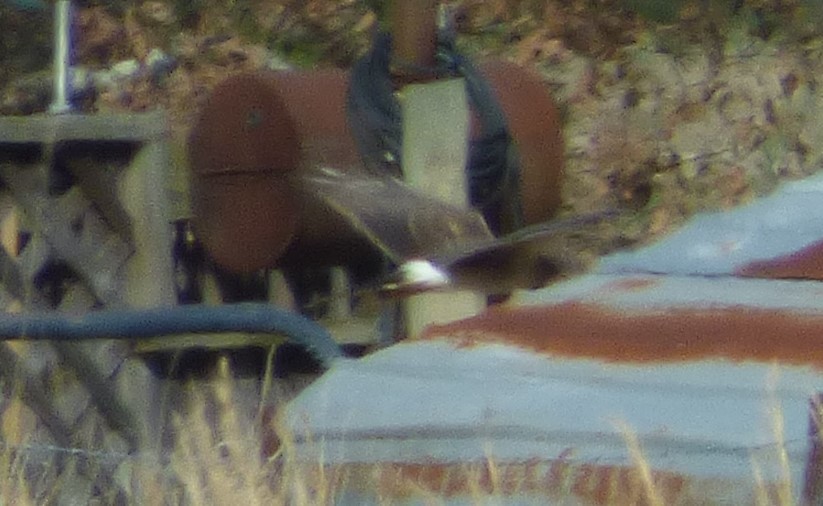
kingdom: Animalia
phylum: Chordata
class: Aves
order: Accipitriformes
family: Accipitridae
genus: Circus
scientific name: Circus cyaneus
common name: Hen harrier
